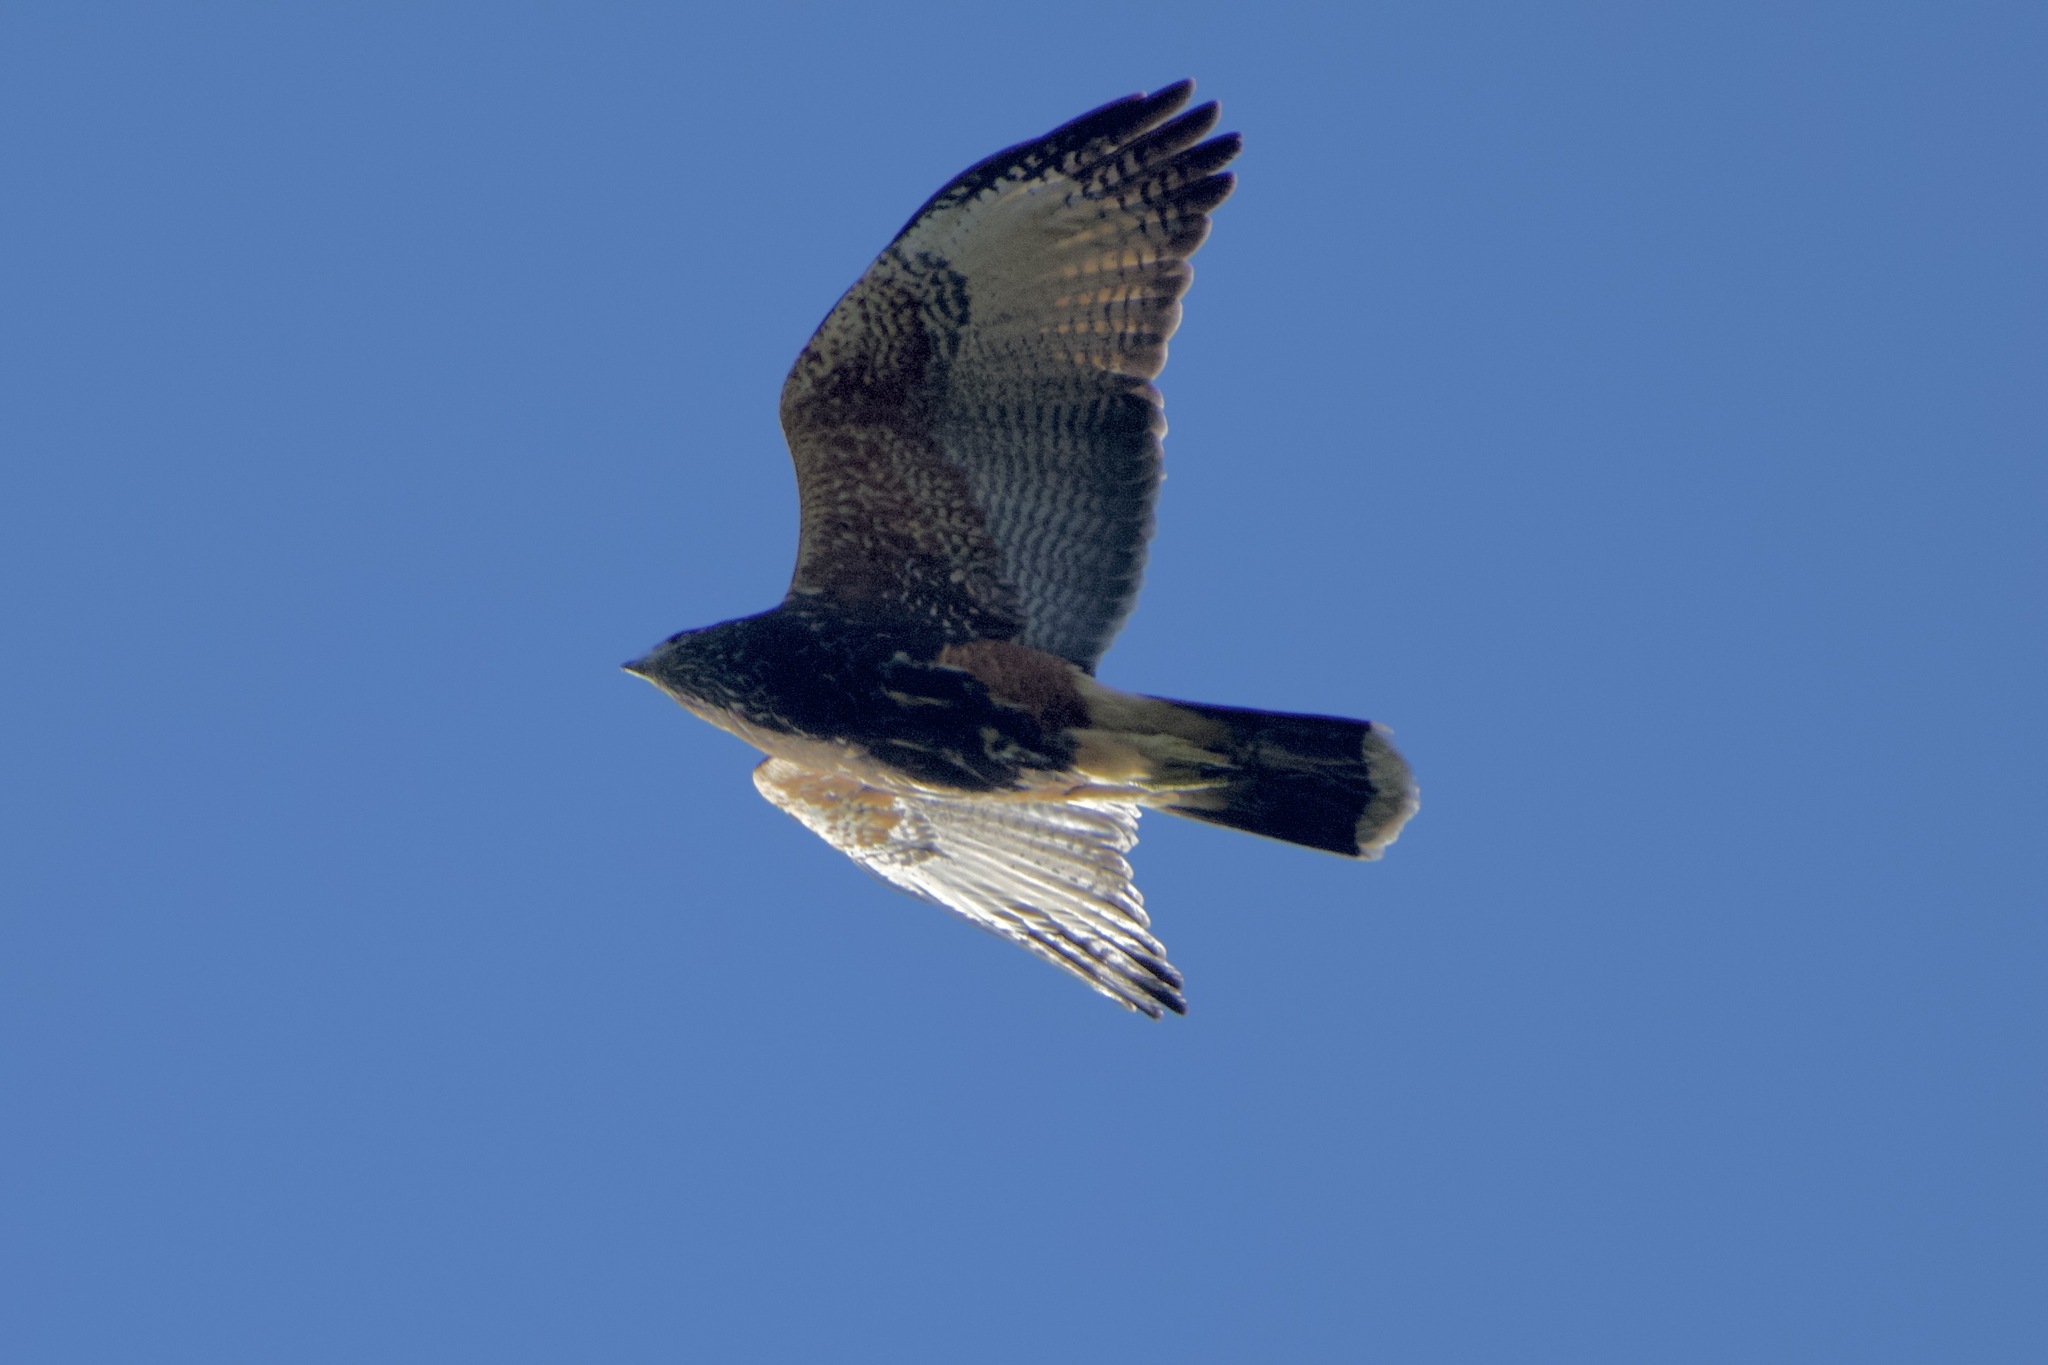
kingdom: Animalia
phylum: Chordata
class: Aves
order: Accipitriformes
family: Accipitridae
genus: Parabuteo
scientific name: Parabuteo unicinctus
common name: Harris's hawk
